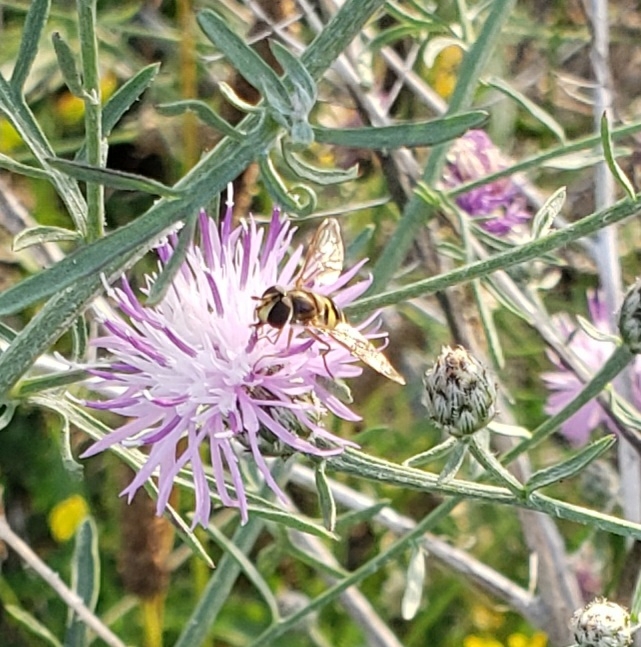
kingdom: Animalia
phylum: Arthropoda
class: Insecta
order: Diptera
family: Syrphidae
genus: Eupeodes
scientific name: Eupeodes
